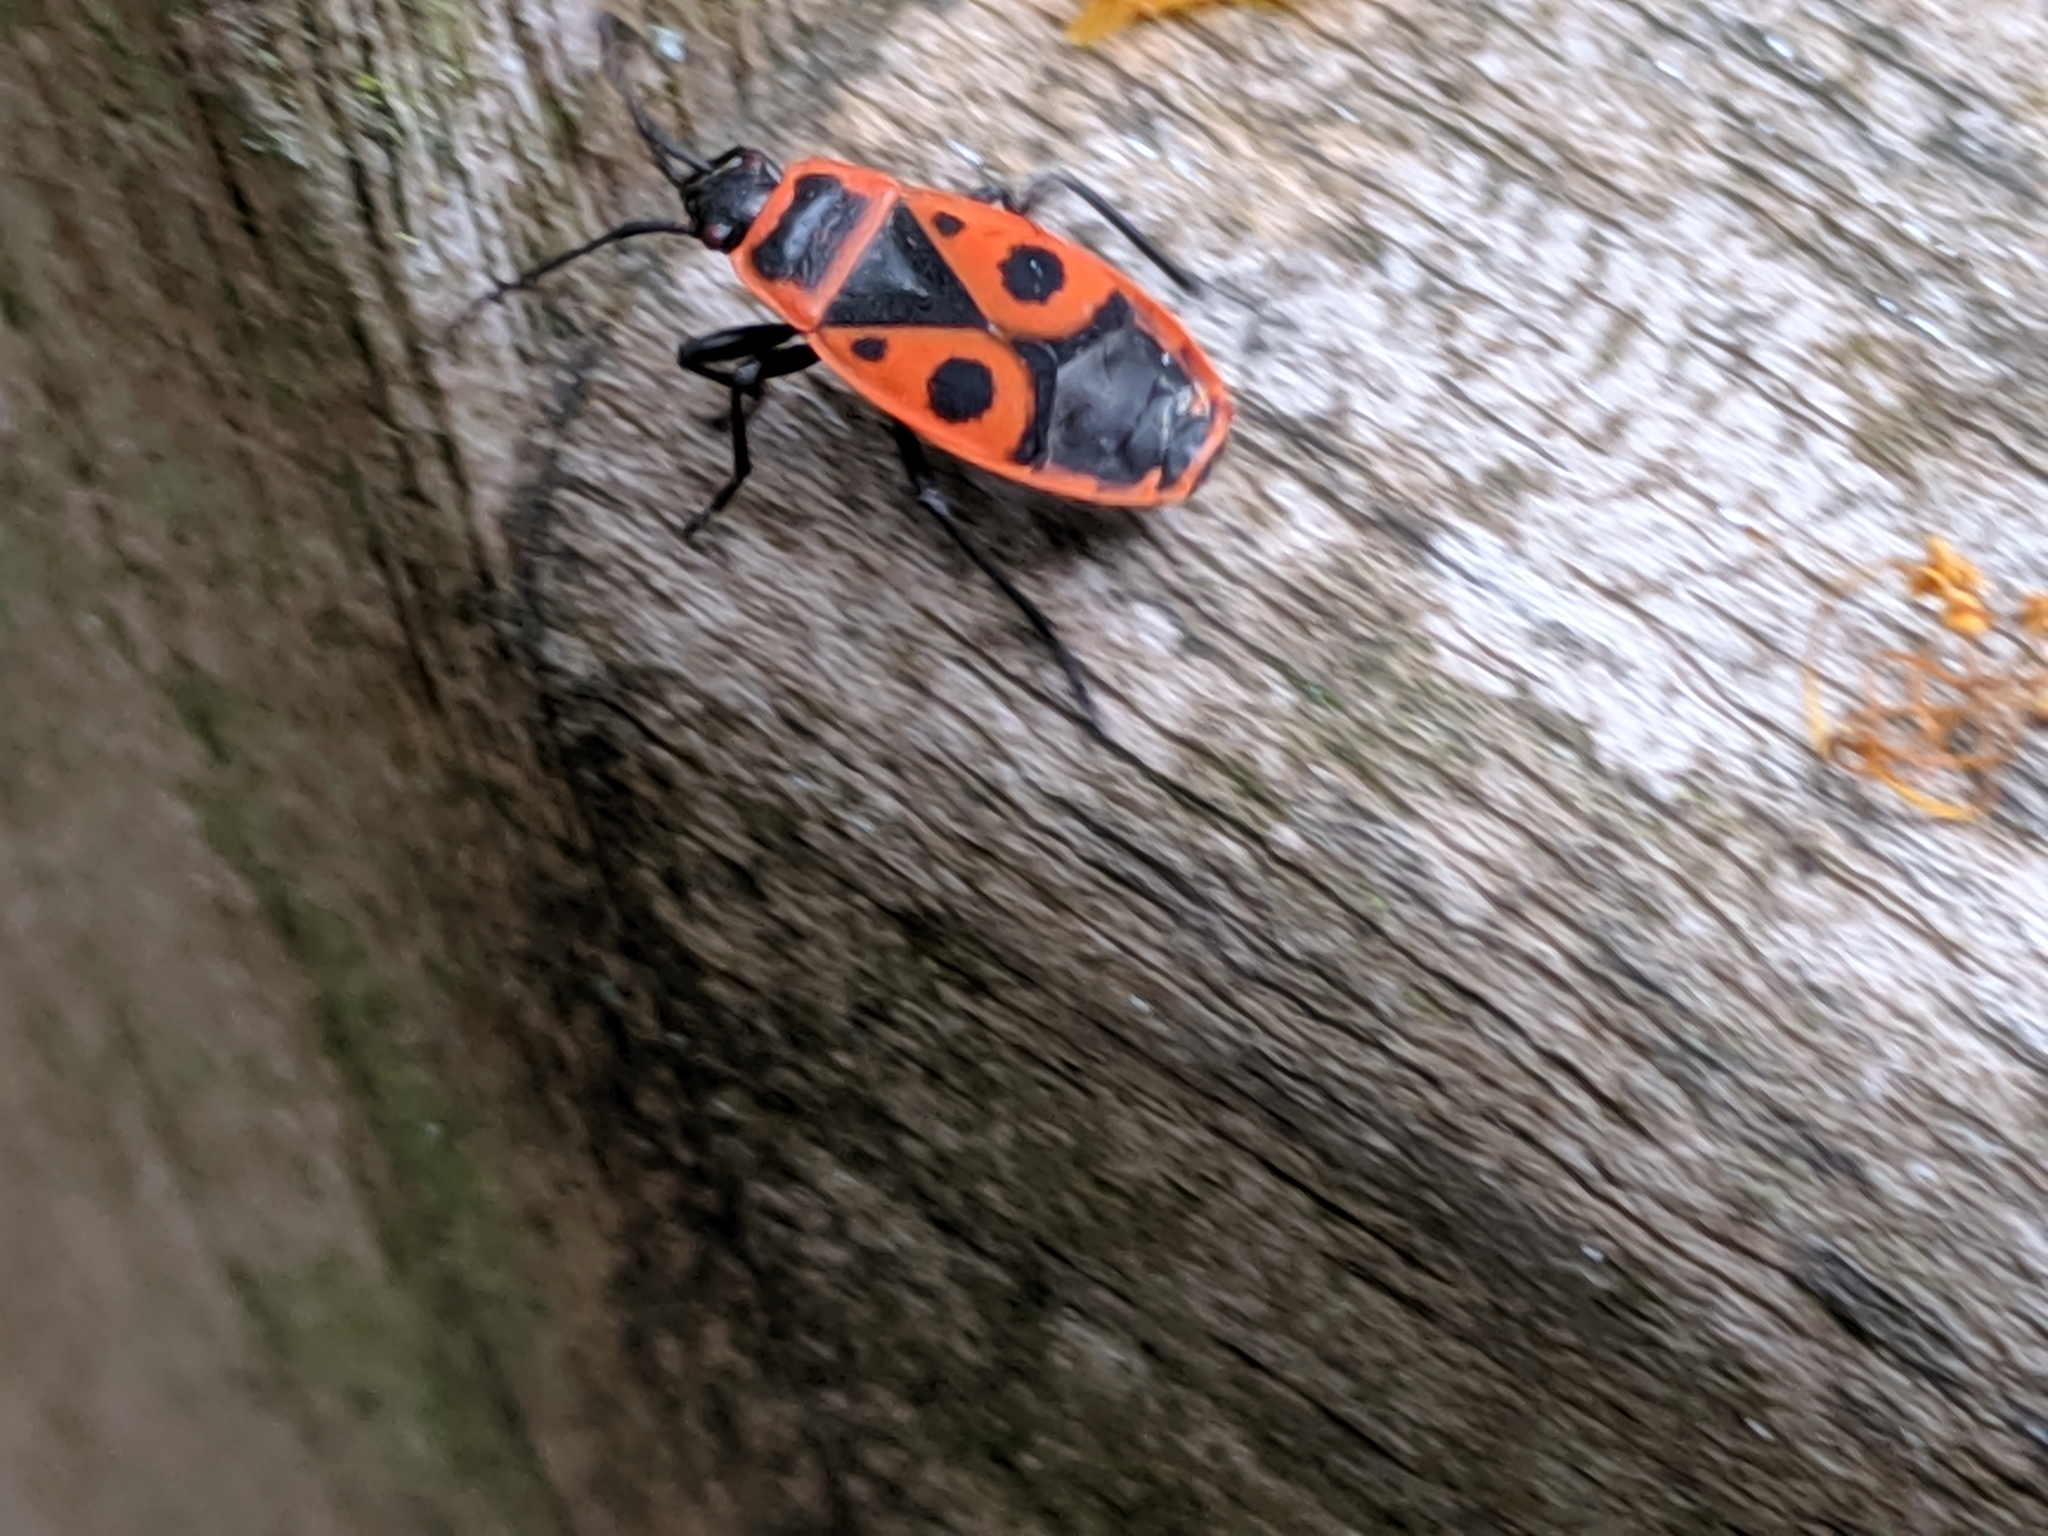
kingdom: Animalia
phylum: Arthropoda
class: Insecta
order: Hemiptera
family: Pyrrhocoridae
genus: Pyrrhocoris
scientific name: Pyrrhocoris apterus
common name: Firebug
